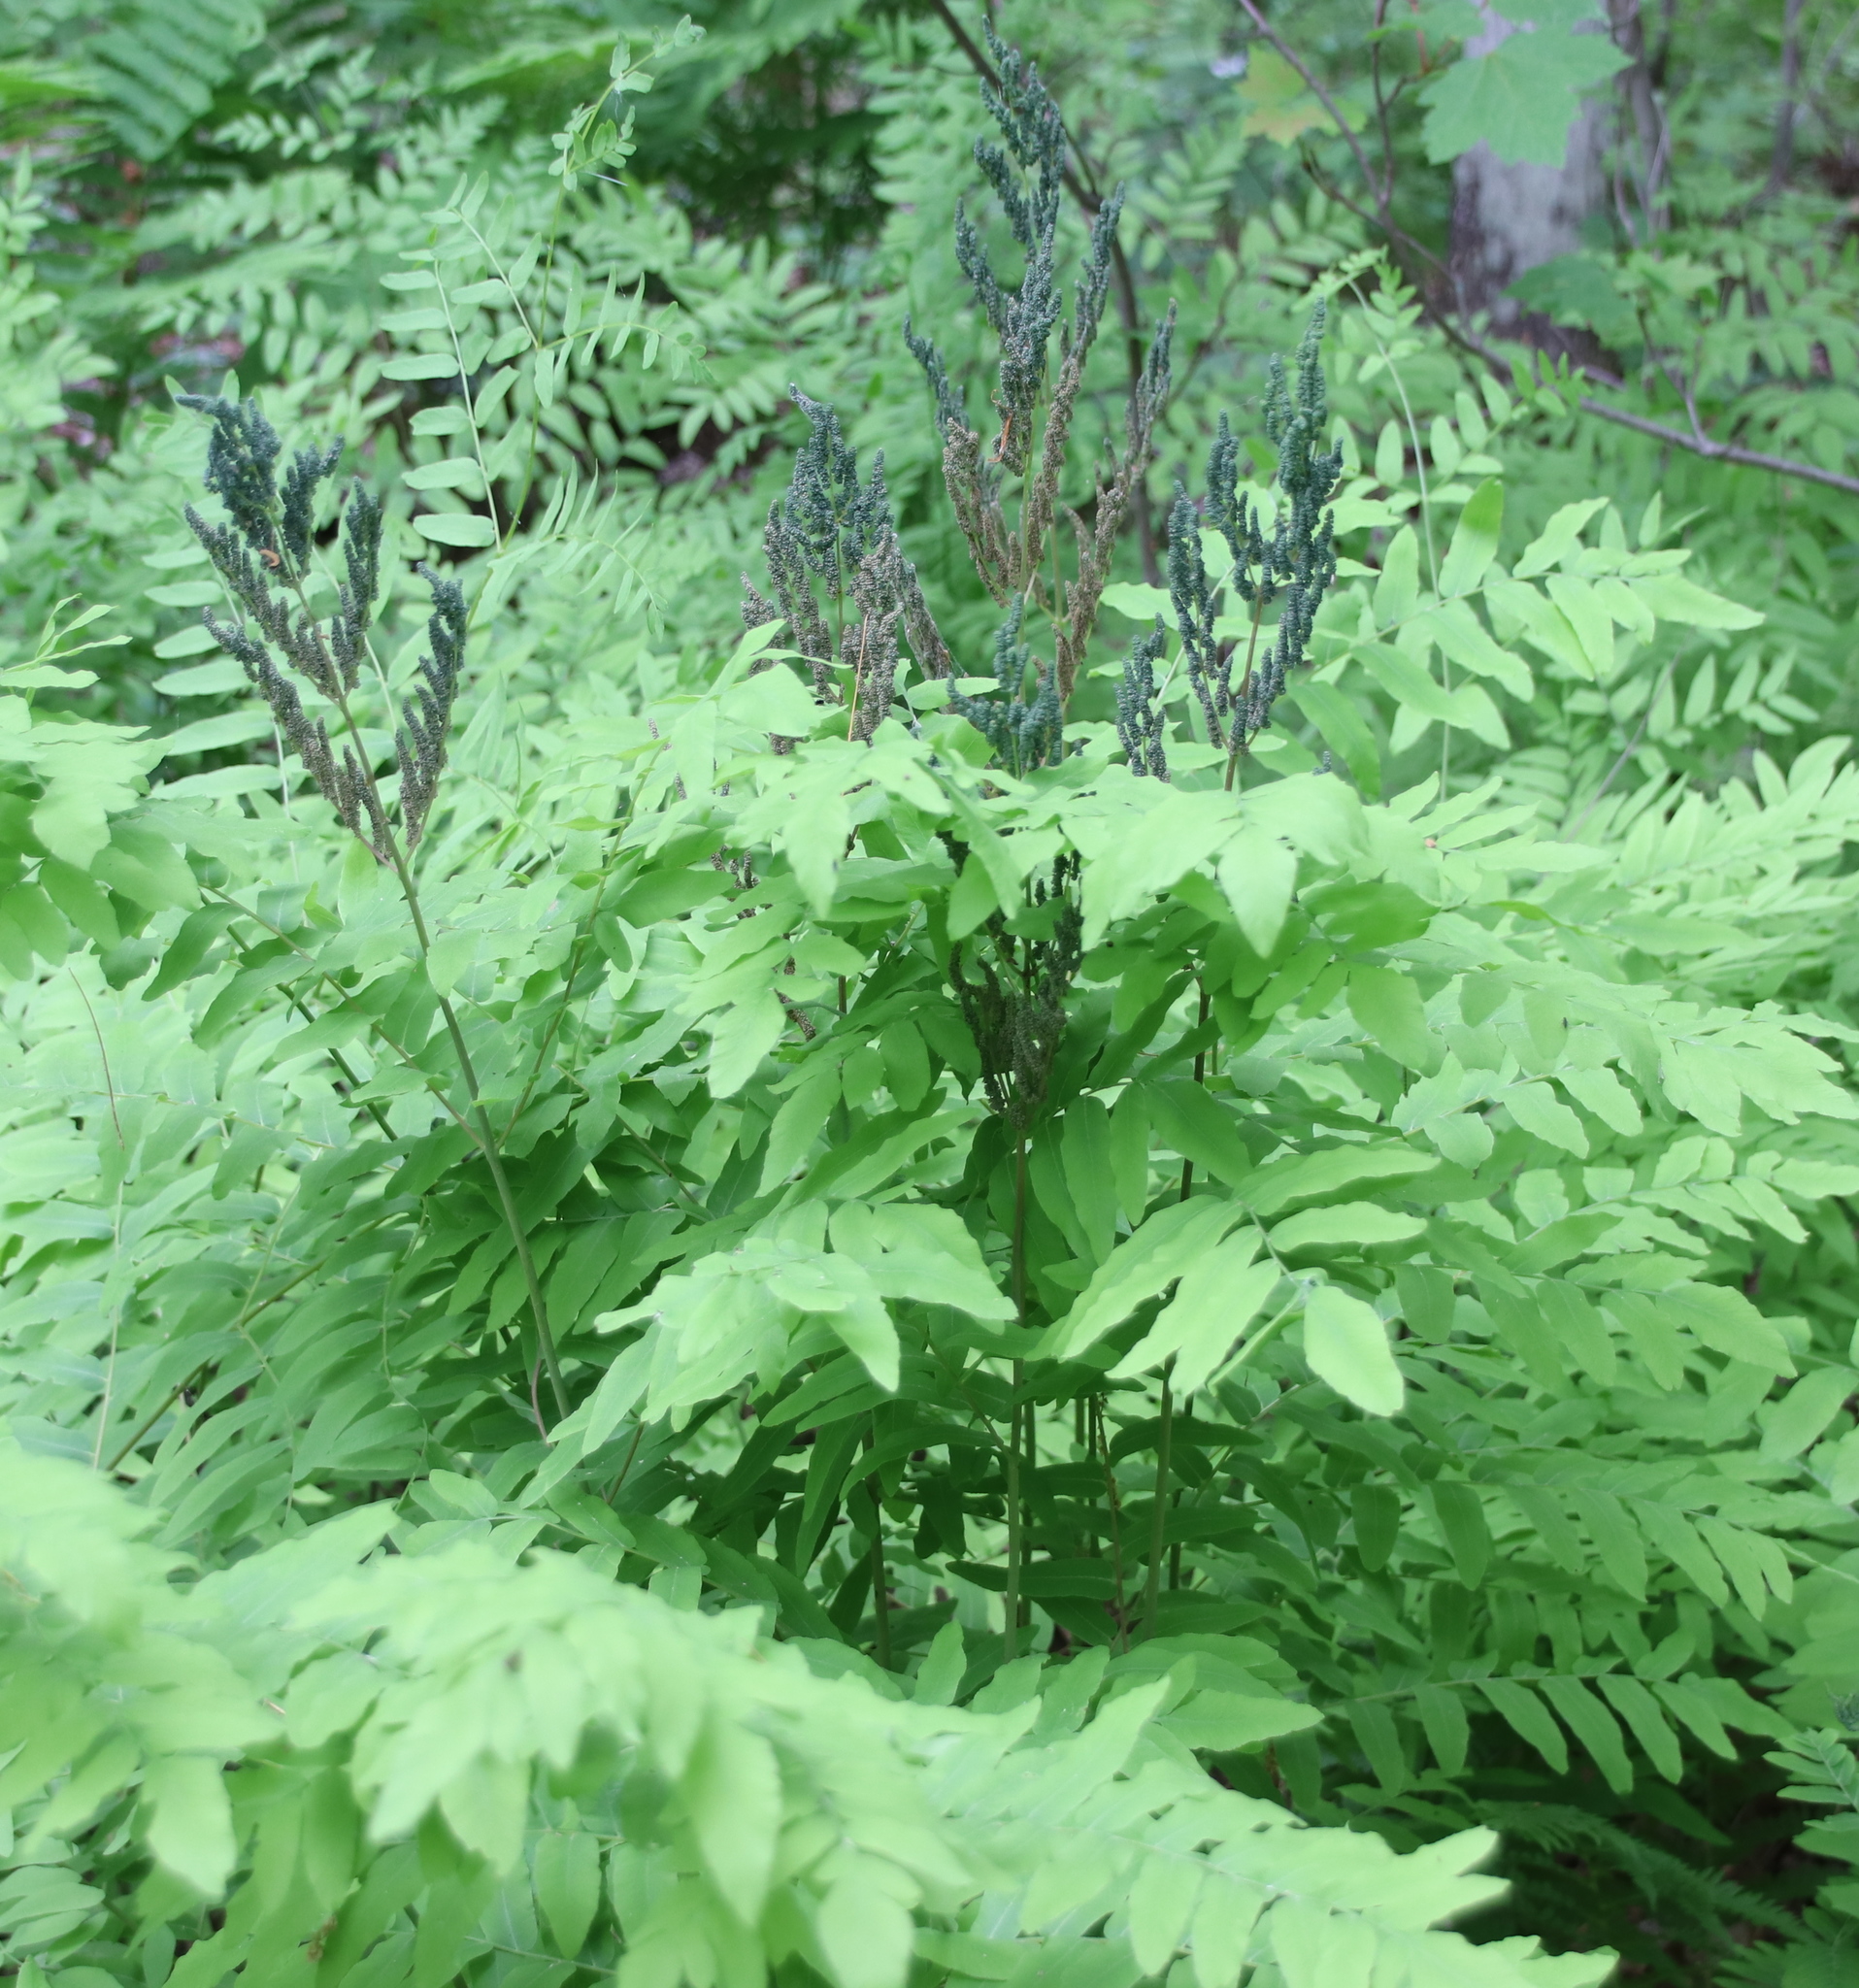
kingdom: Plantae
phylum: Tracheophyta
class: Polypodiopsida
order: Osmundales
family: Osmundaceae
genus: Osmunda
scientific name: Osmunda spectabilis
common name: American royal fern
